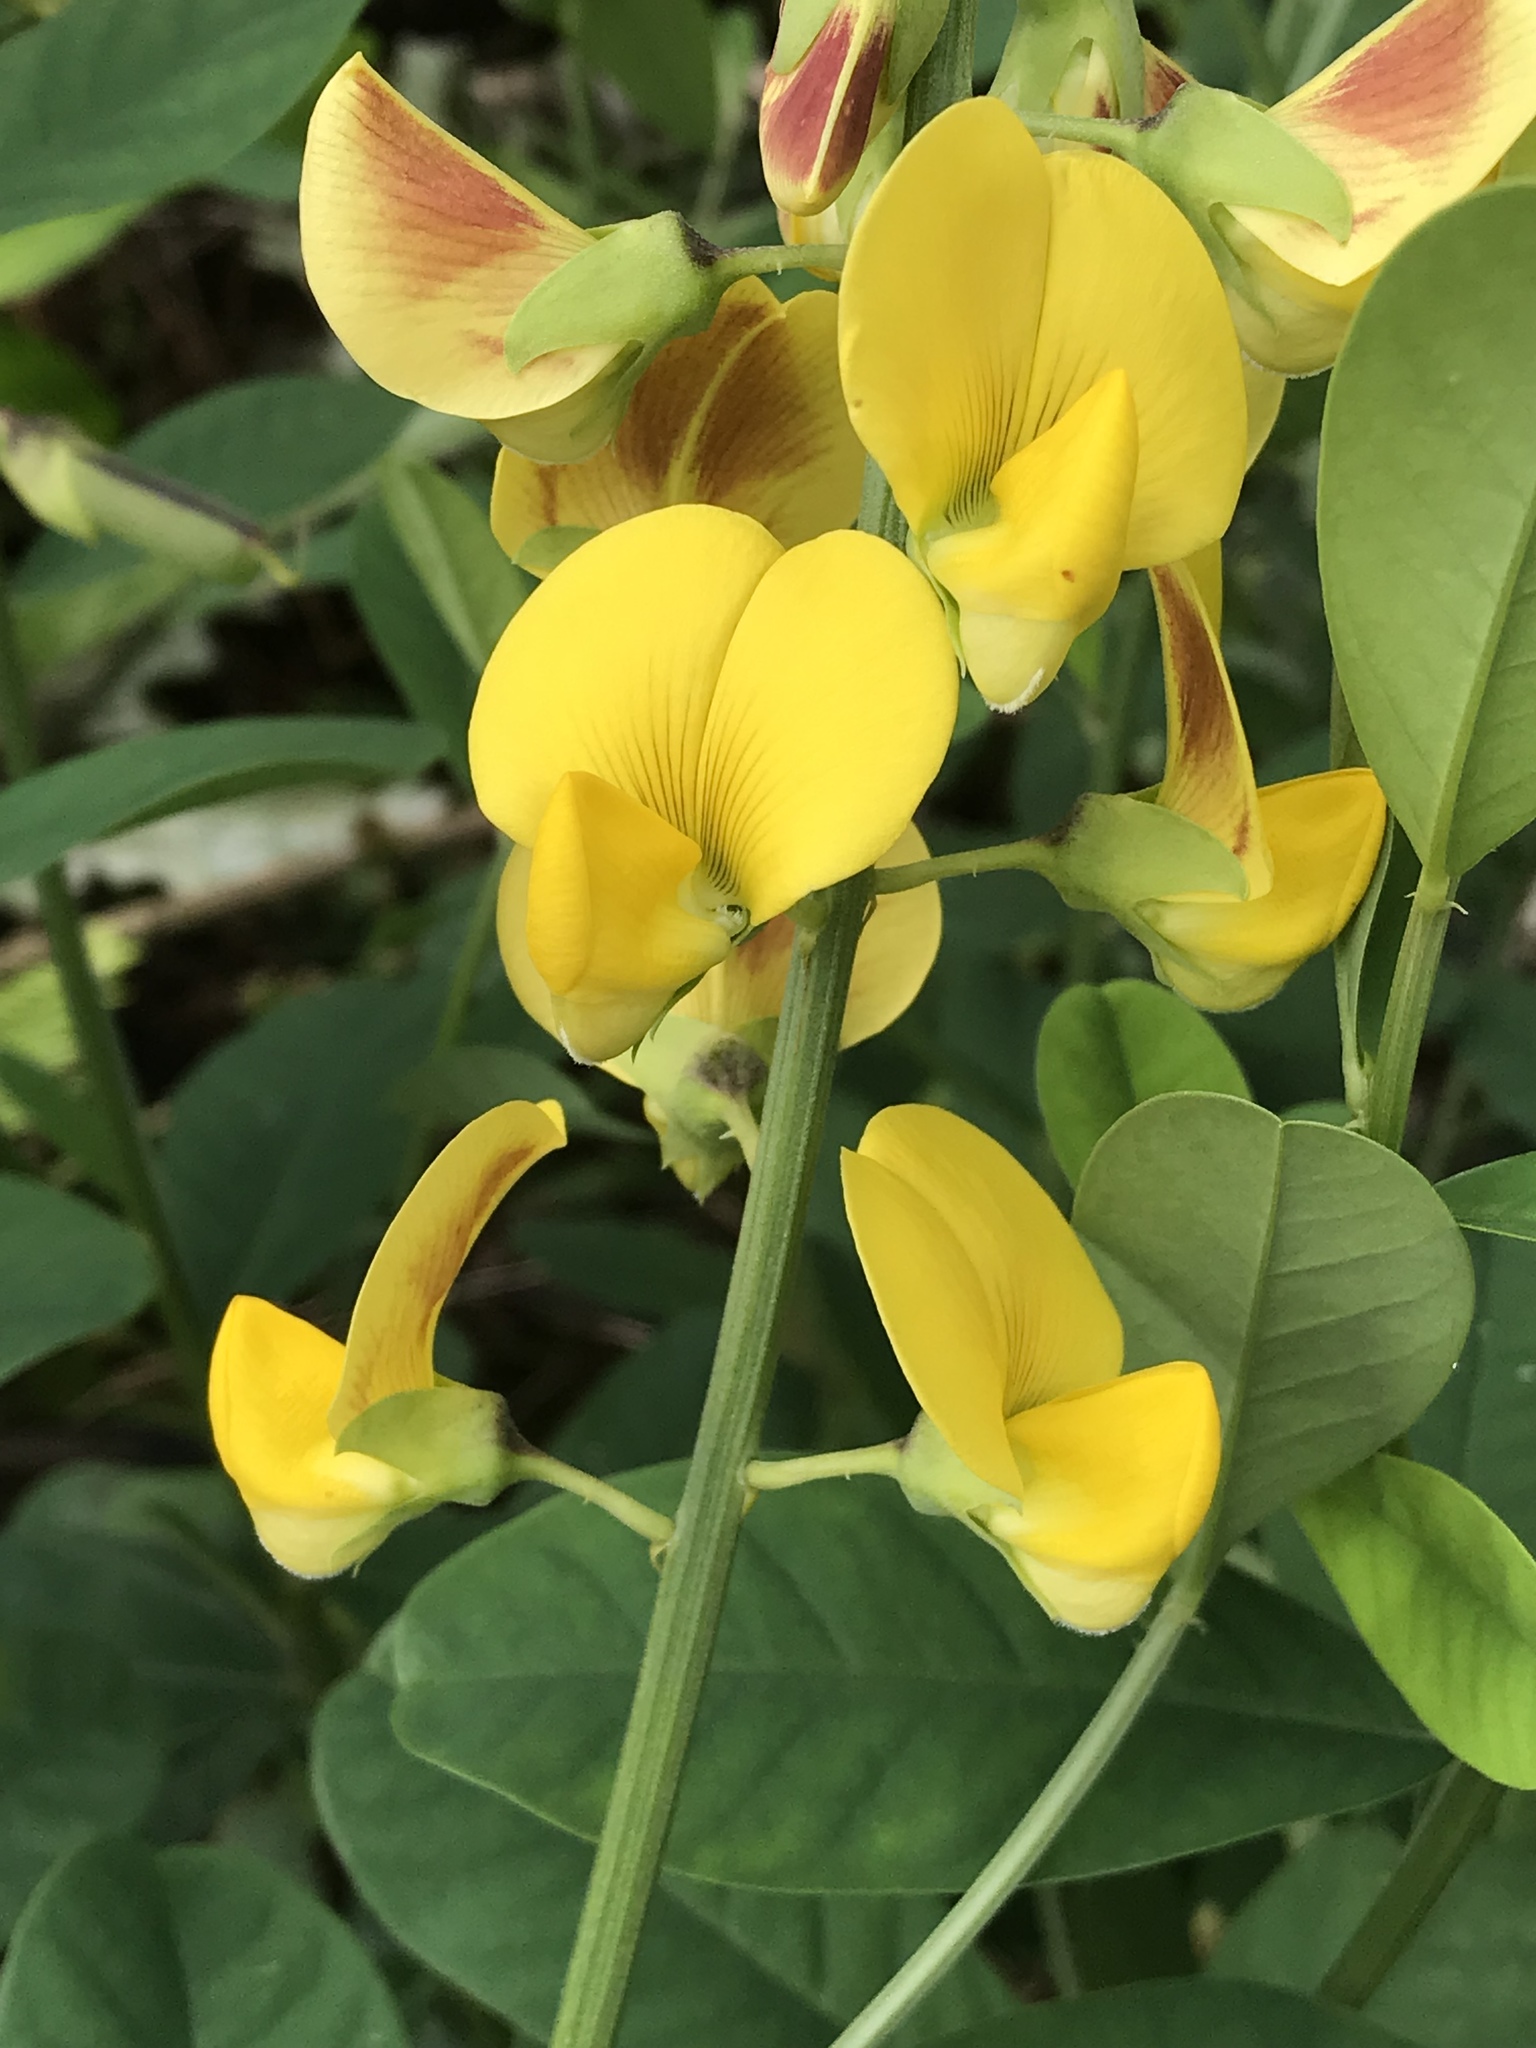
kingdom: Plantae
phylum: Tracheophyta
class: Magnoliopsida
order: Fabales
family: Fabaceae
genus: Crotalaria
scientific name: Crotalaria retusa
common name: Rattleweed
